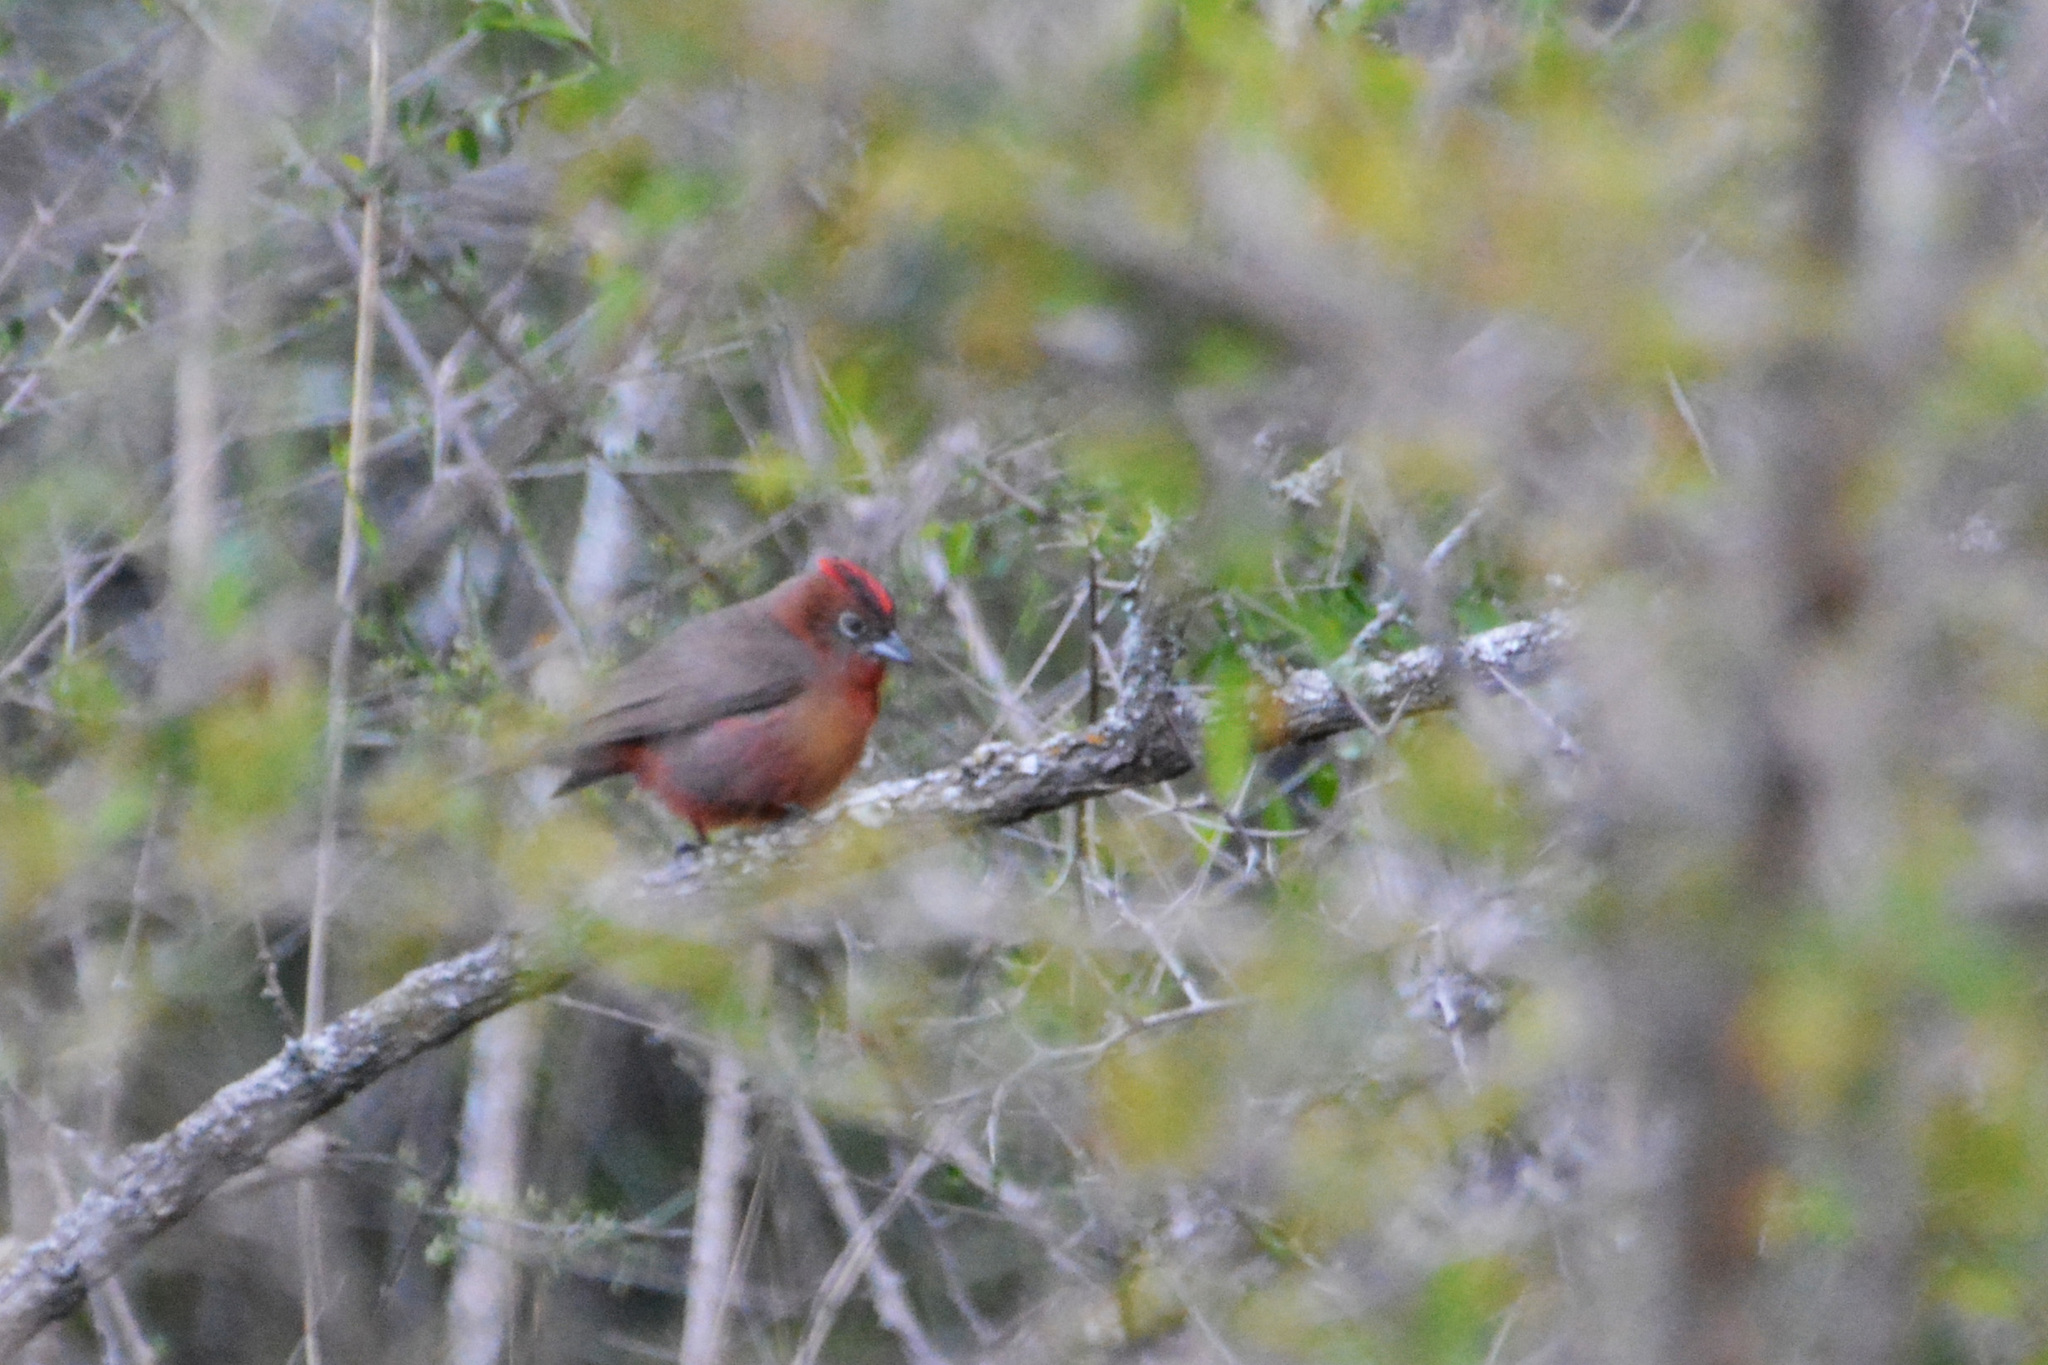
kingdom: Animalia
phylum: Chordata
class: Aves
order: Passeriformes
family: Thraupidae
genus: Coryphospingus
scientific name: Coryphospingus cucullatus
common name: Red pileated finch
